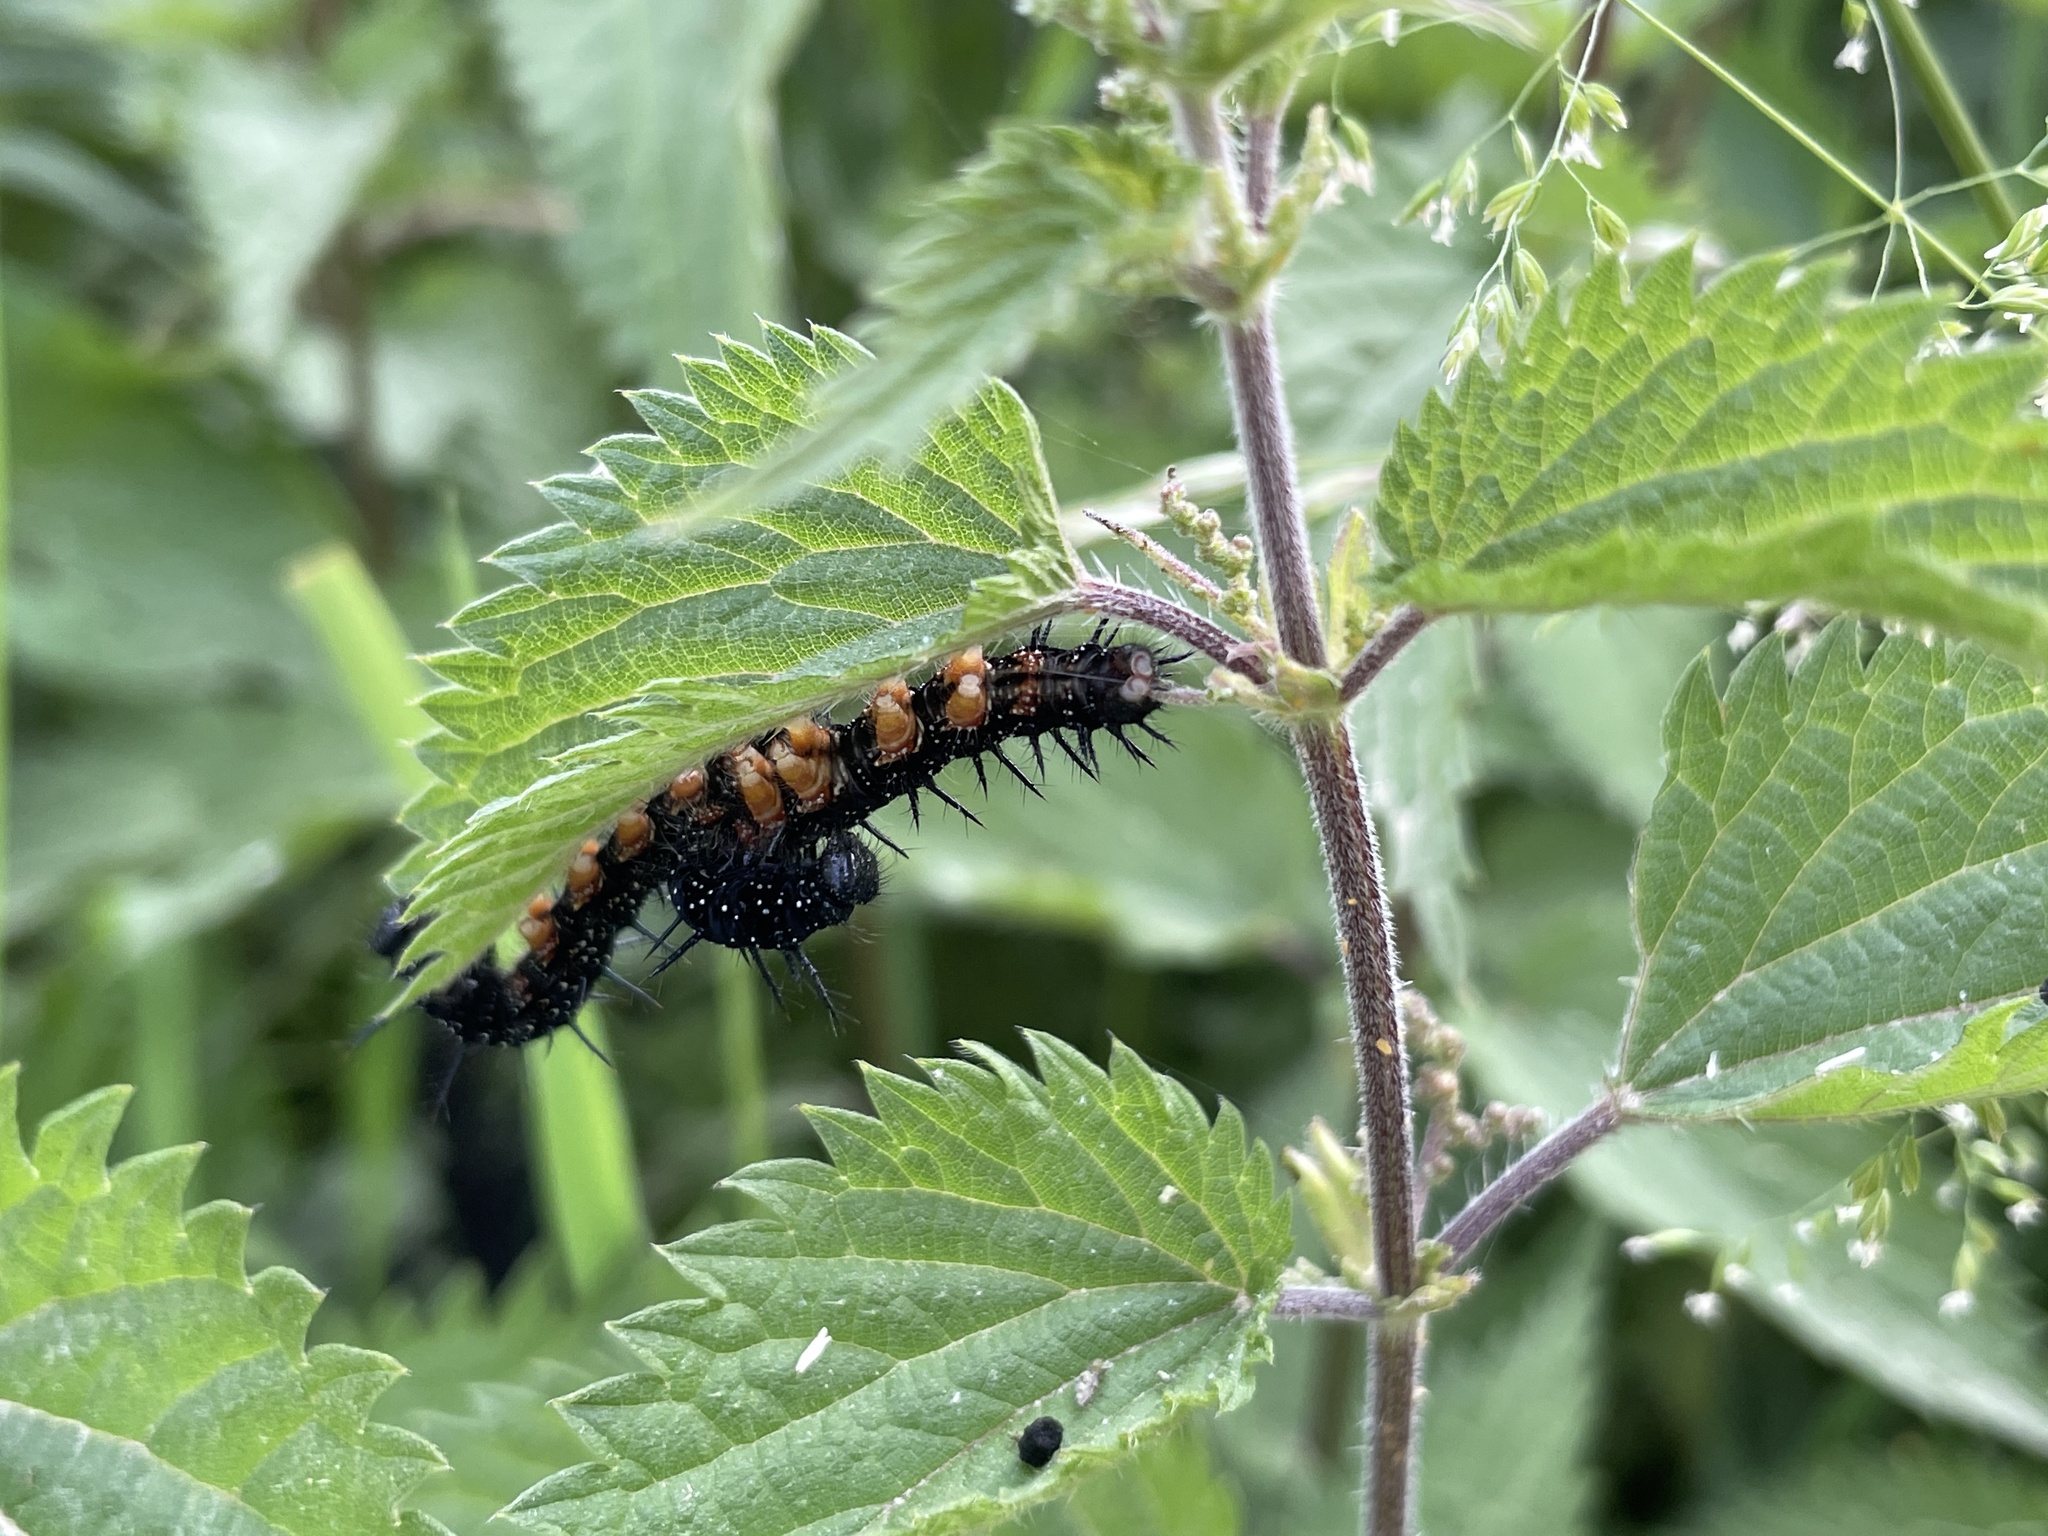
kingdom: Animalia
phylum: Arthropoda
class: Insecta
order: Lepidoptera
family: Nymphalidae
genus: Aglais
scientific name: Aglais io
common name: Peacock
